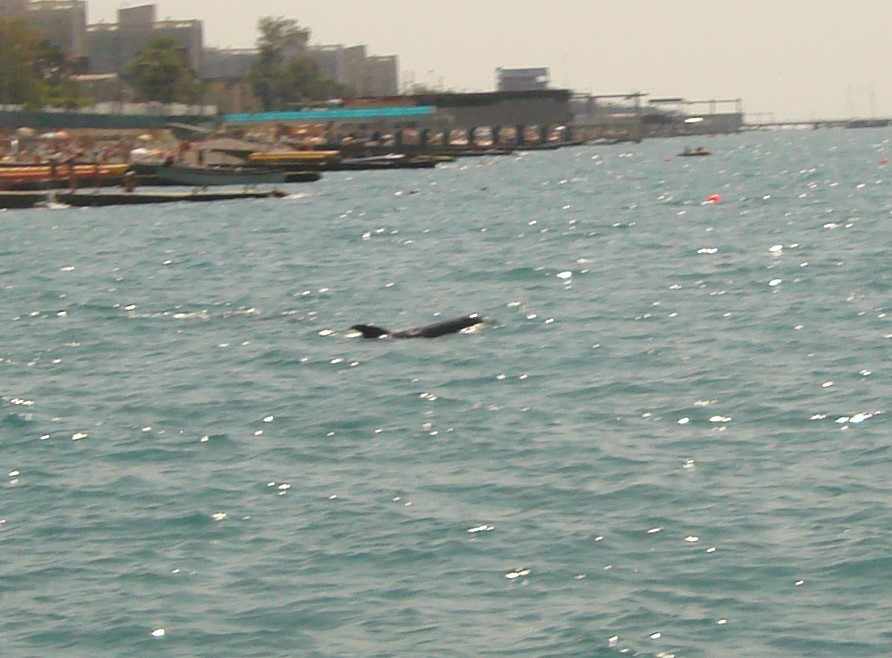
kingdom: Animalia
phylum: Chordata
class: Mammalia
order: Cetacea
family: Delphinidae
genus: Tursiops
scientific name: Tursiops truncatus
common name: Bottlenose dolphin
